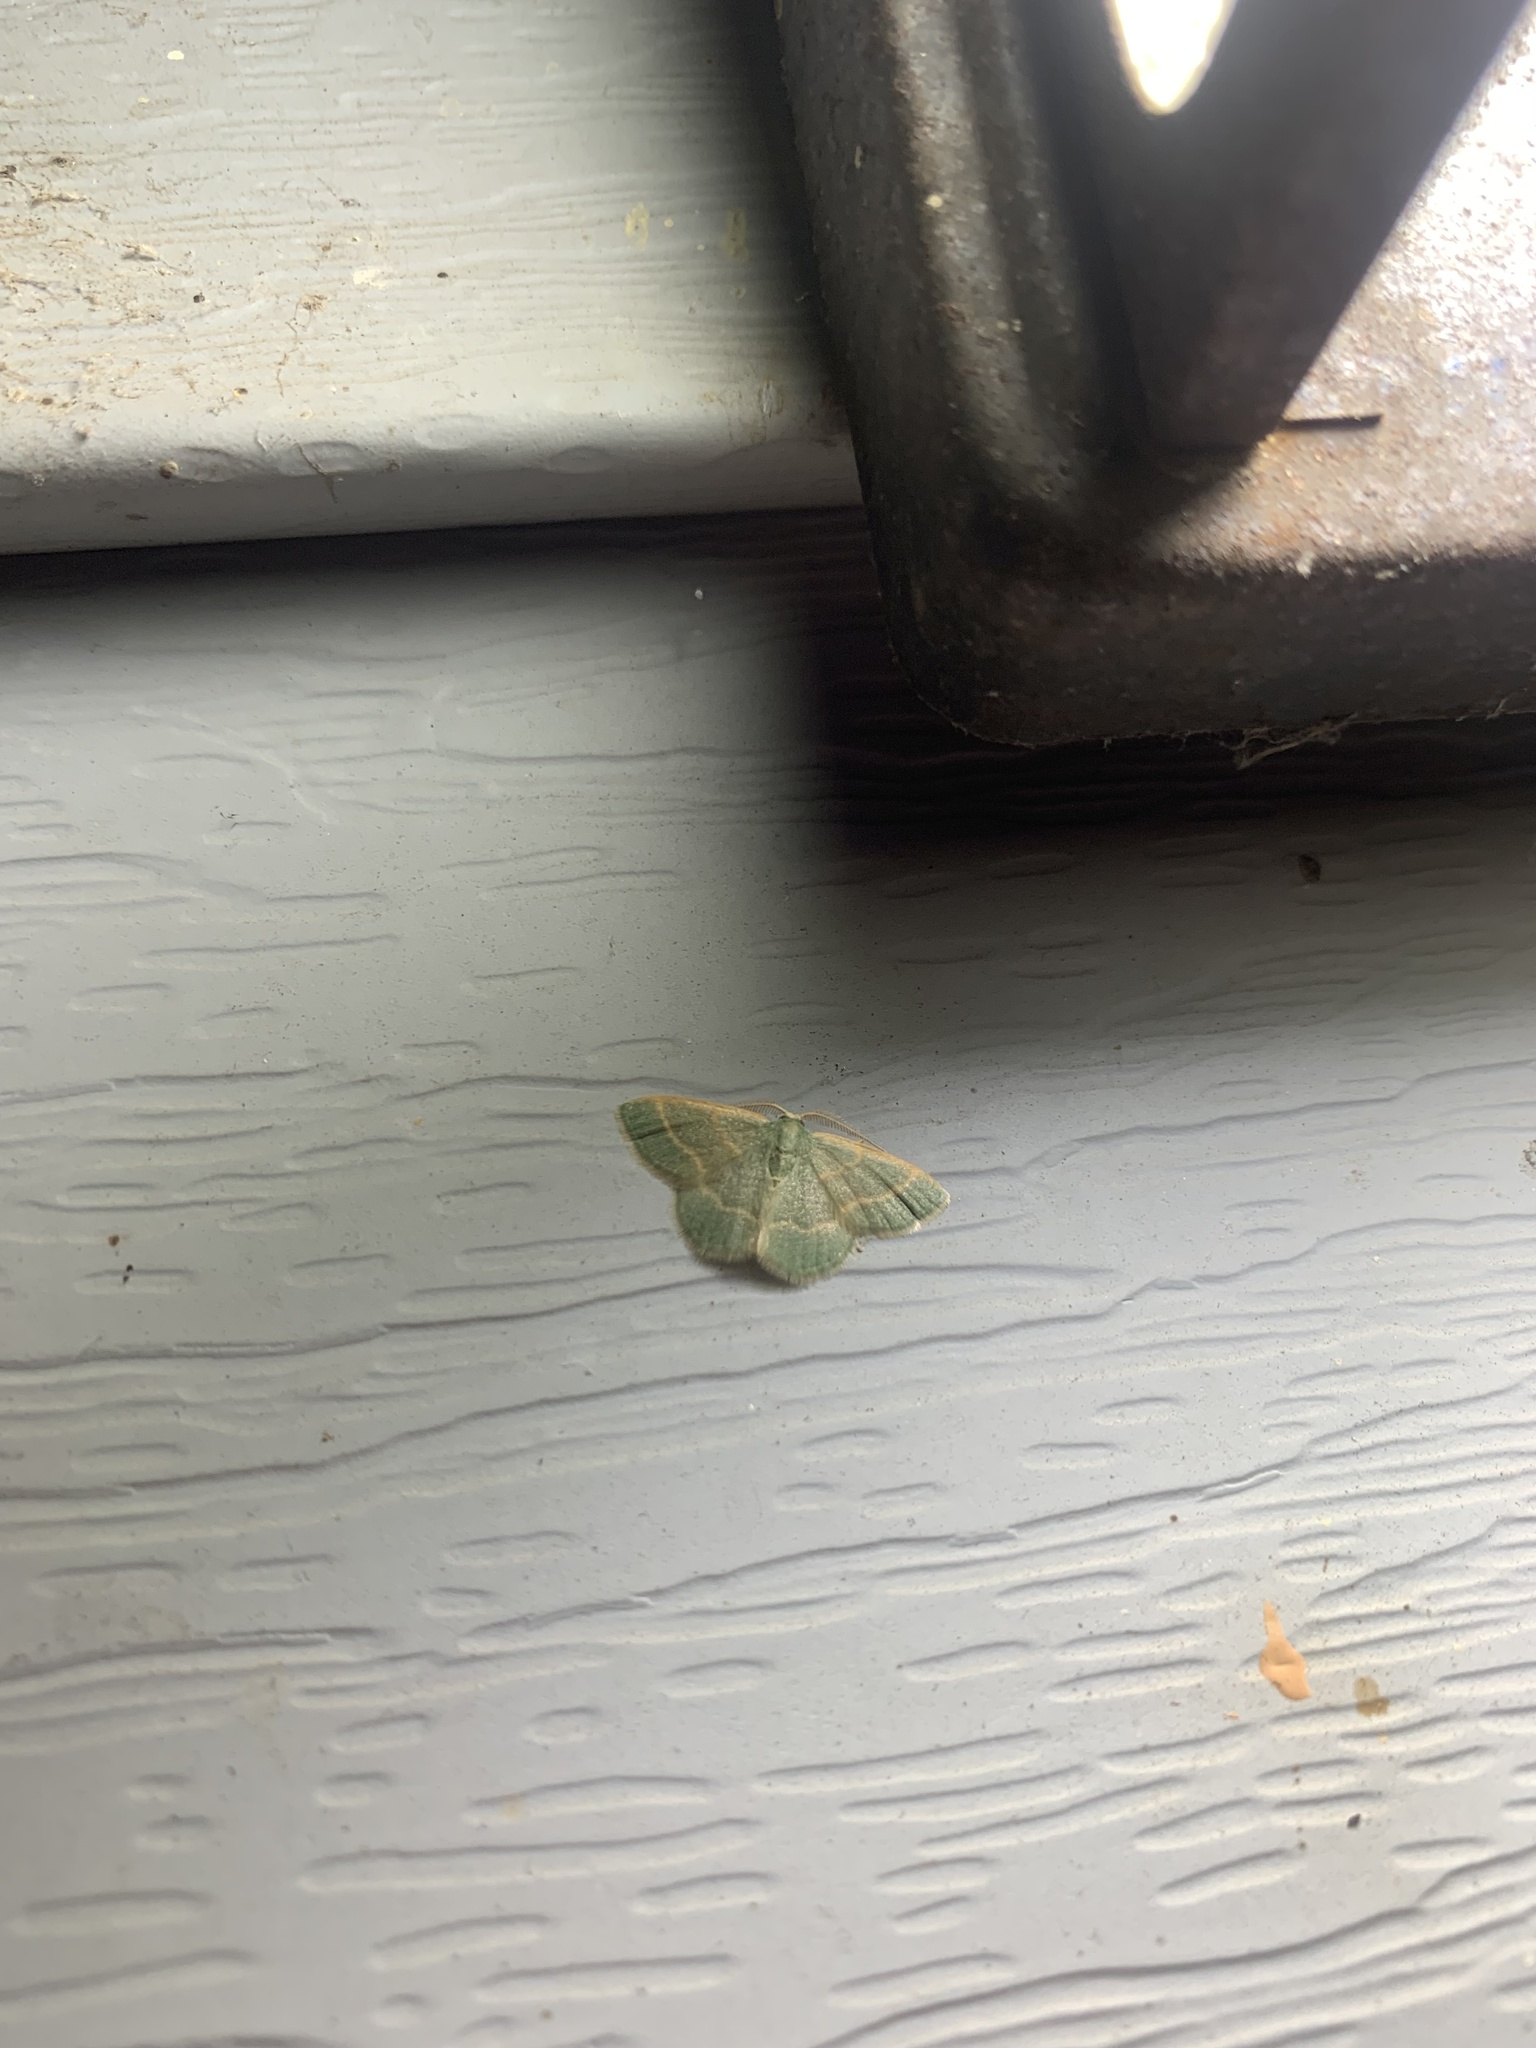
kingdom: Animalia
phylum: Arthropoda
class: Insecta
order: Lepidoptera
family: Geometridae
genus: Chlorochlamys
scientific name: Chlorochlamys chloroleucaria
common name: Blackberry looper
